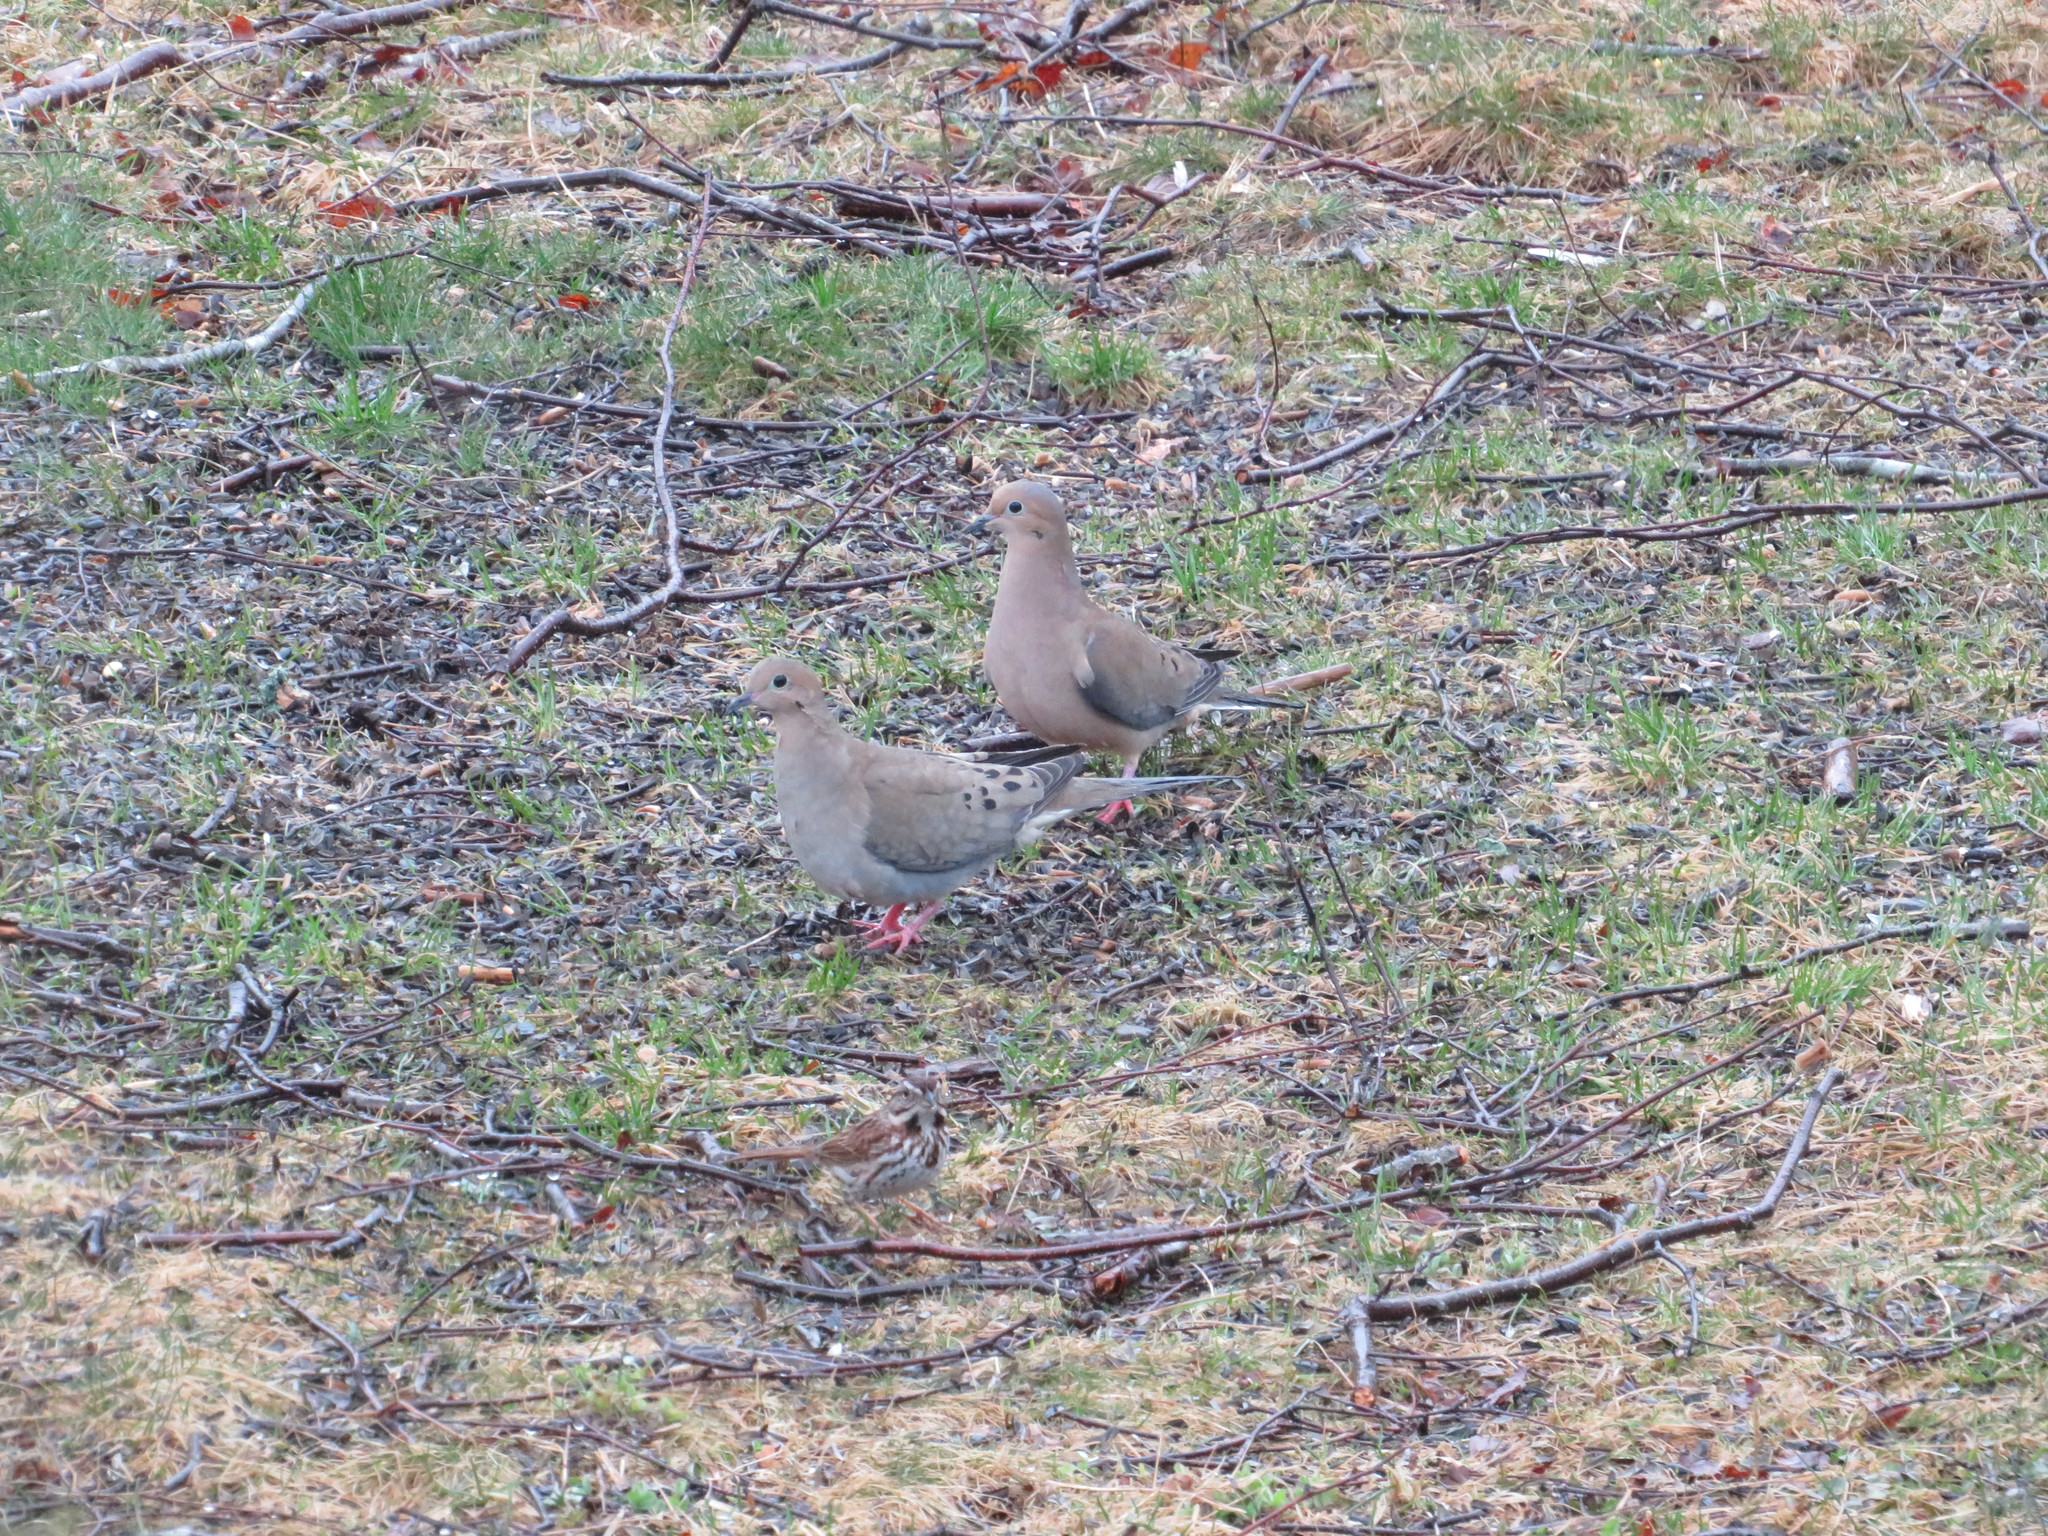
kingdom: Animalia
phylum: Chordata
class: Aves
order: Columbiformes
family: Columbidae
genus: Zenaida
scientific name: Zenaida macroura
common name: Mourning dove
